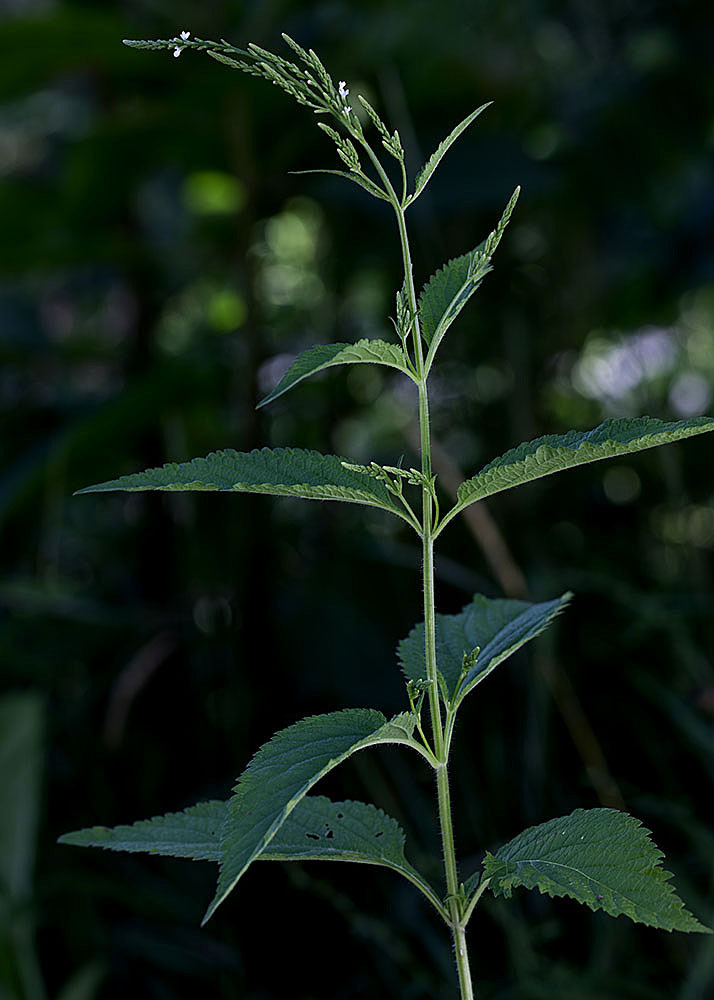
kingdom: Plantae
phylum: Tracheophyta
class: Magnoliopsida
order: Lamiales
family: Verbenaceae
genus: Verbena
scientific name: Verbena urticifolia
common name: Nettle-leaved vervain
